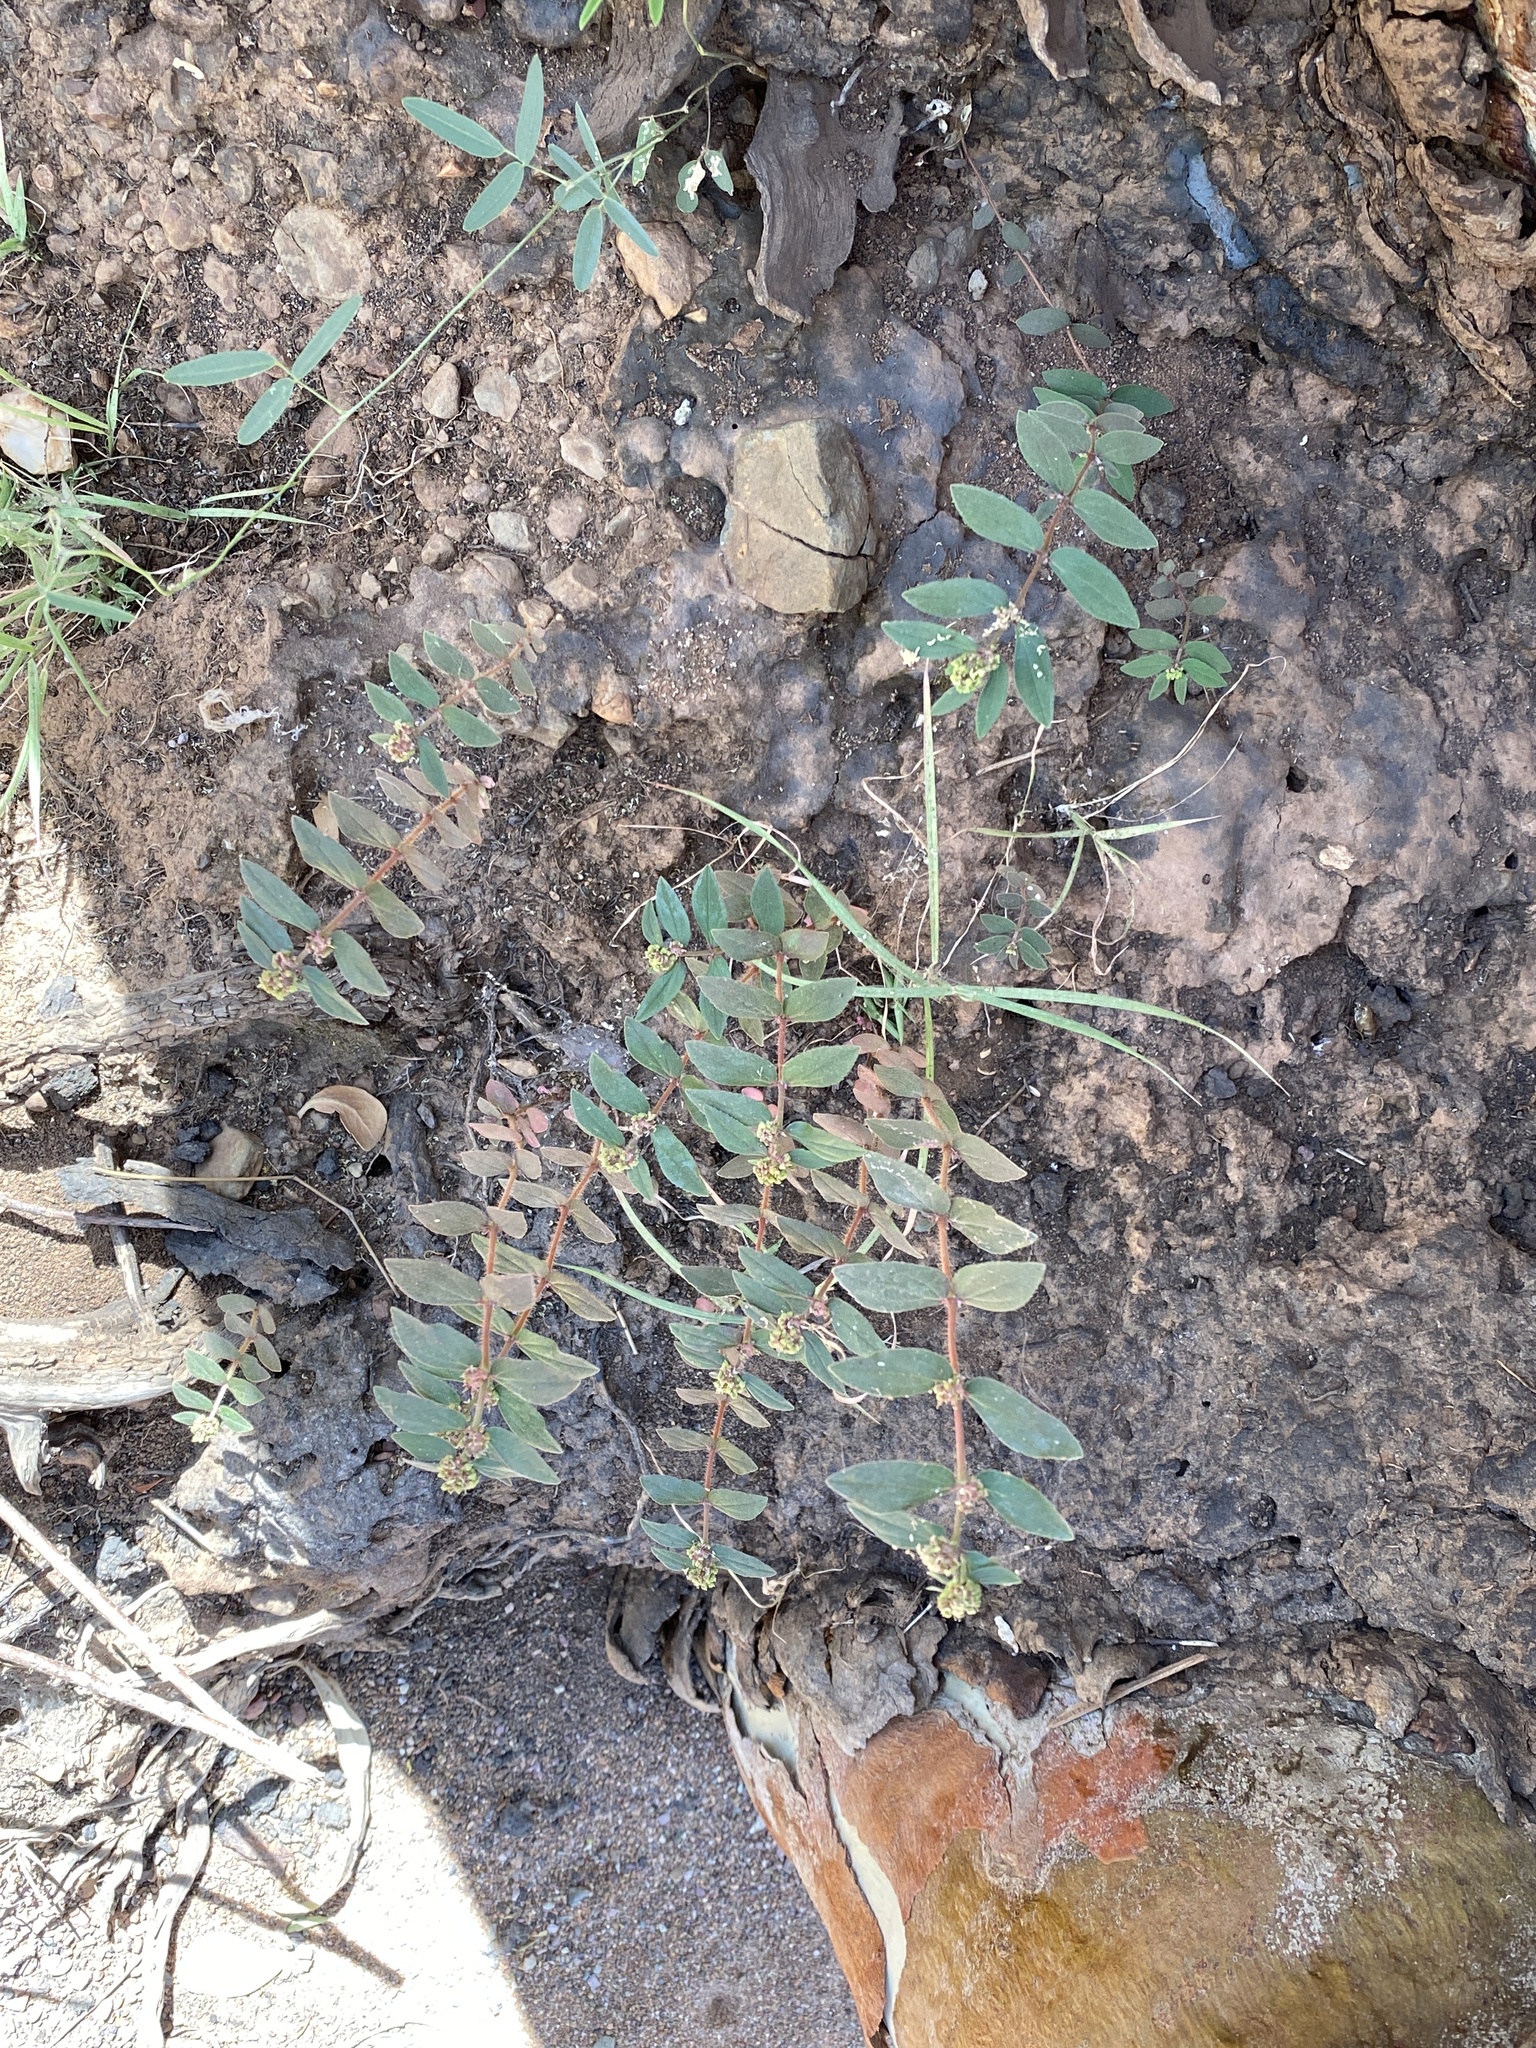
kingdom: Plantae
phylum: Tracheophyta
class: Magnoliopsida
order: Malpighiales
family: Euphorbiaceae
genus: Euphorbia
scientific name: Euphorbia hirta
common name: Pillpod sandmat
